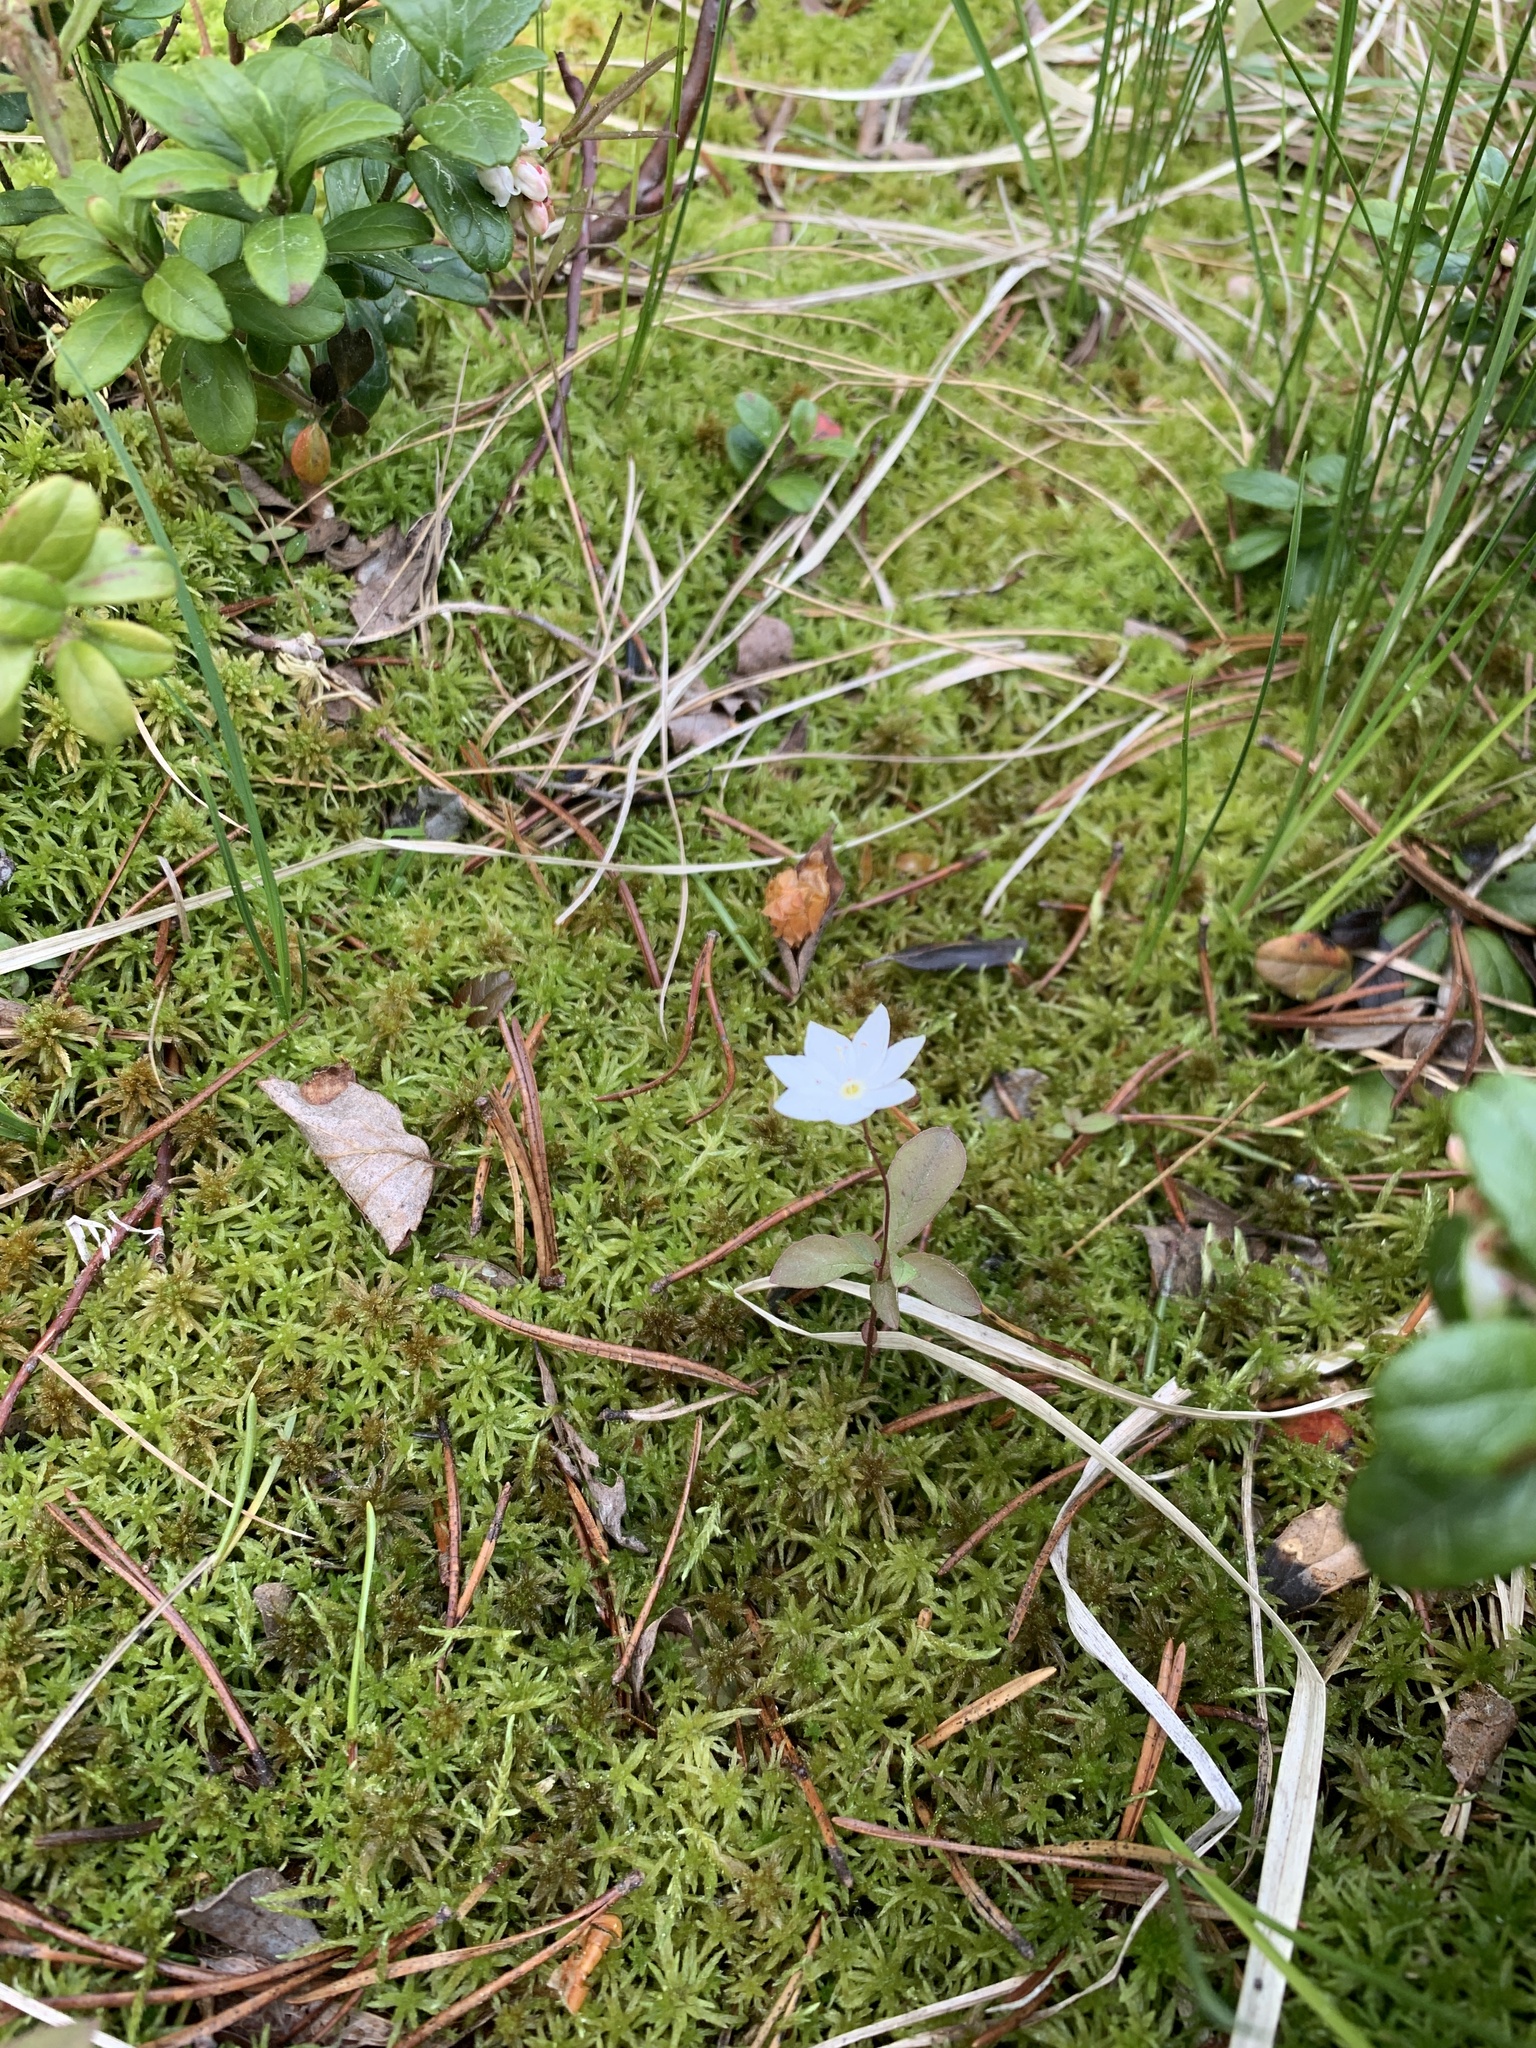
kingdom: Plantae
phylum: Tracheophyta
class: Magnoliopsida
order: Ericales
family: Primulaceae
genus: Lysimachia
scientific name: Lysimachia europaea
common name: Arctic starflower
